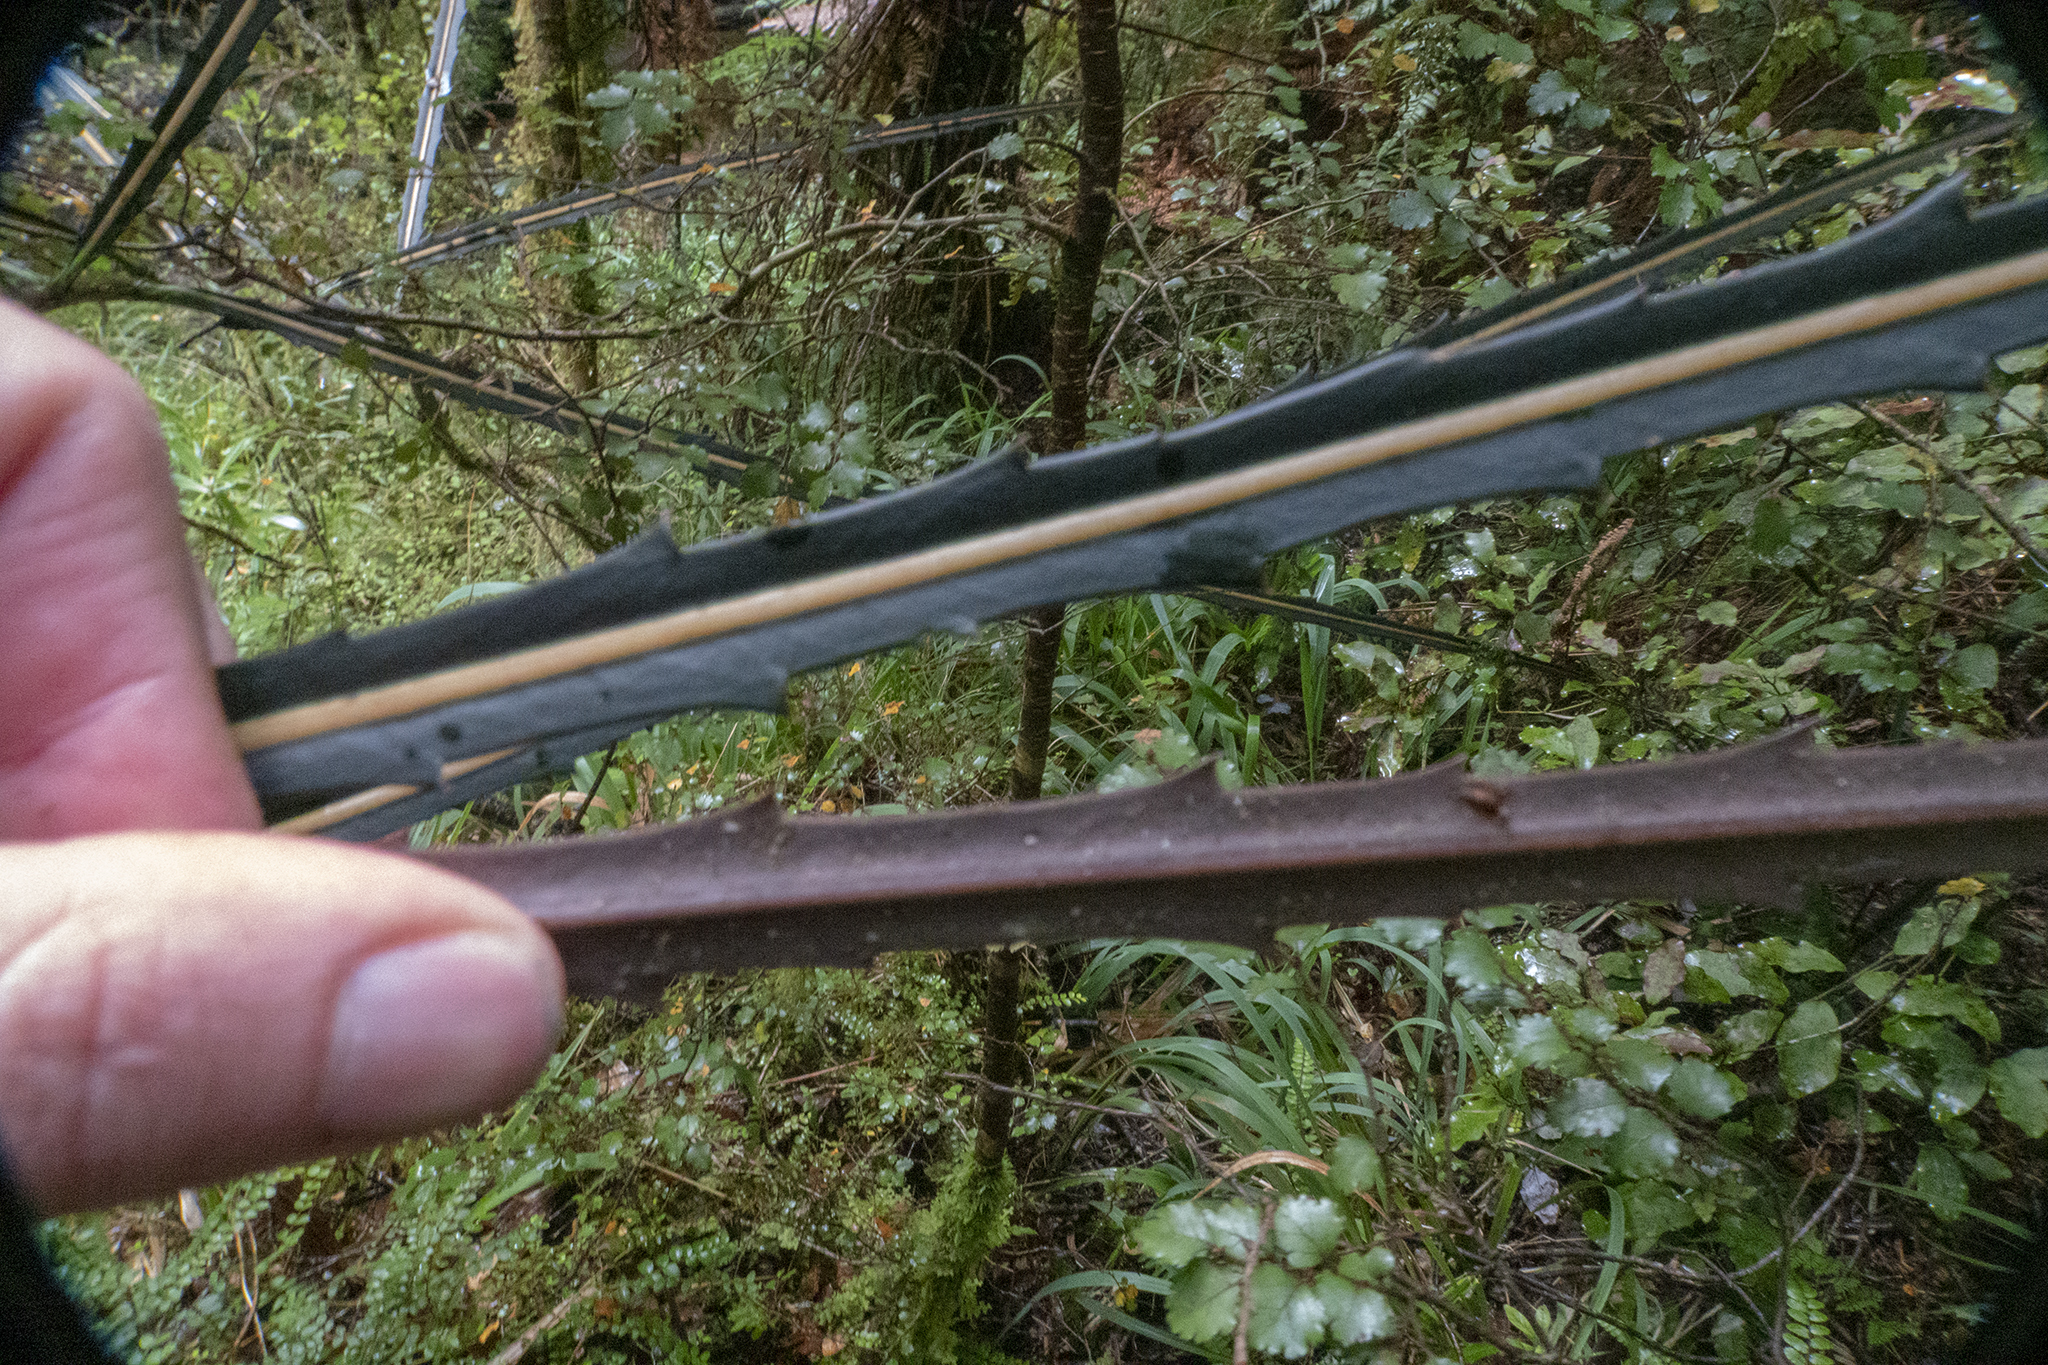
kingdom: Plantae
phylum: Tracheophyta
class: Magnoliopsida
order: Apiales
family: Araliaceae
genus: Pseudopanax
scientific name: Pseudopanax crassifolius
